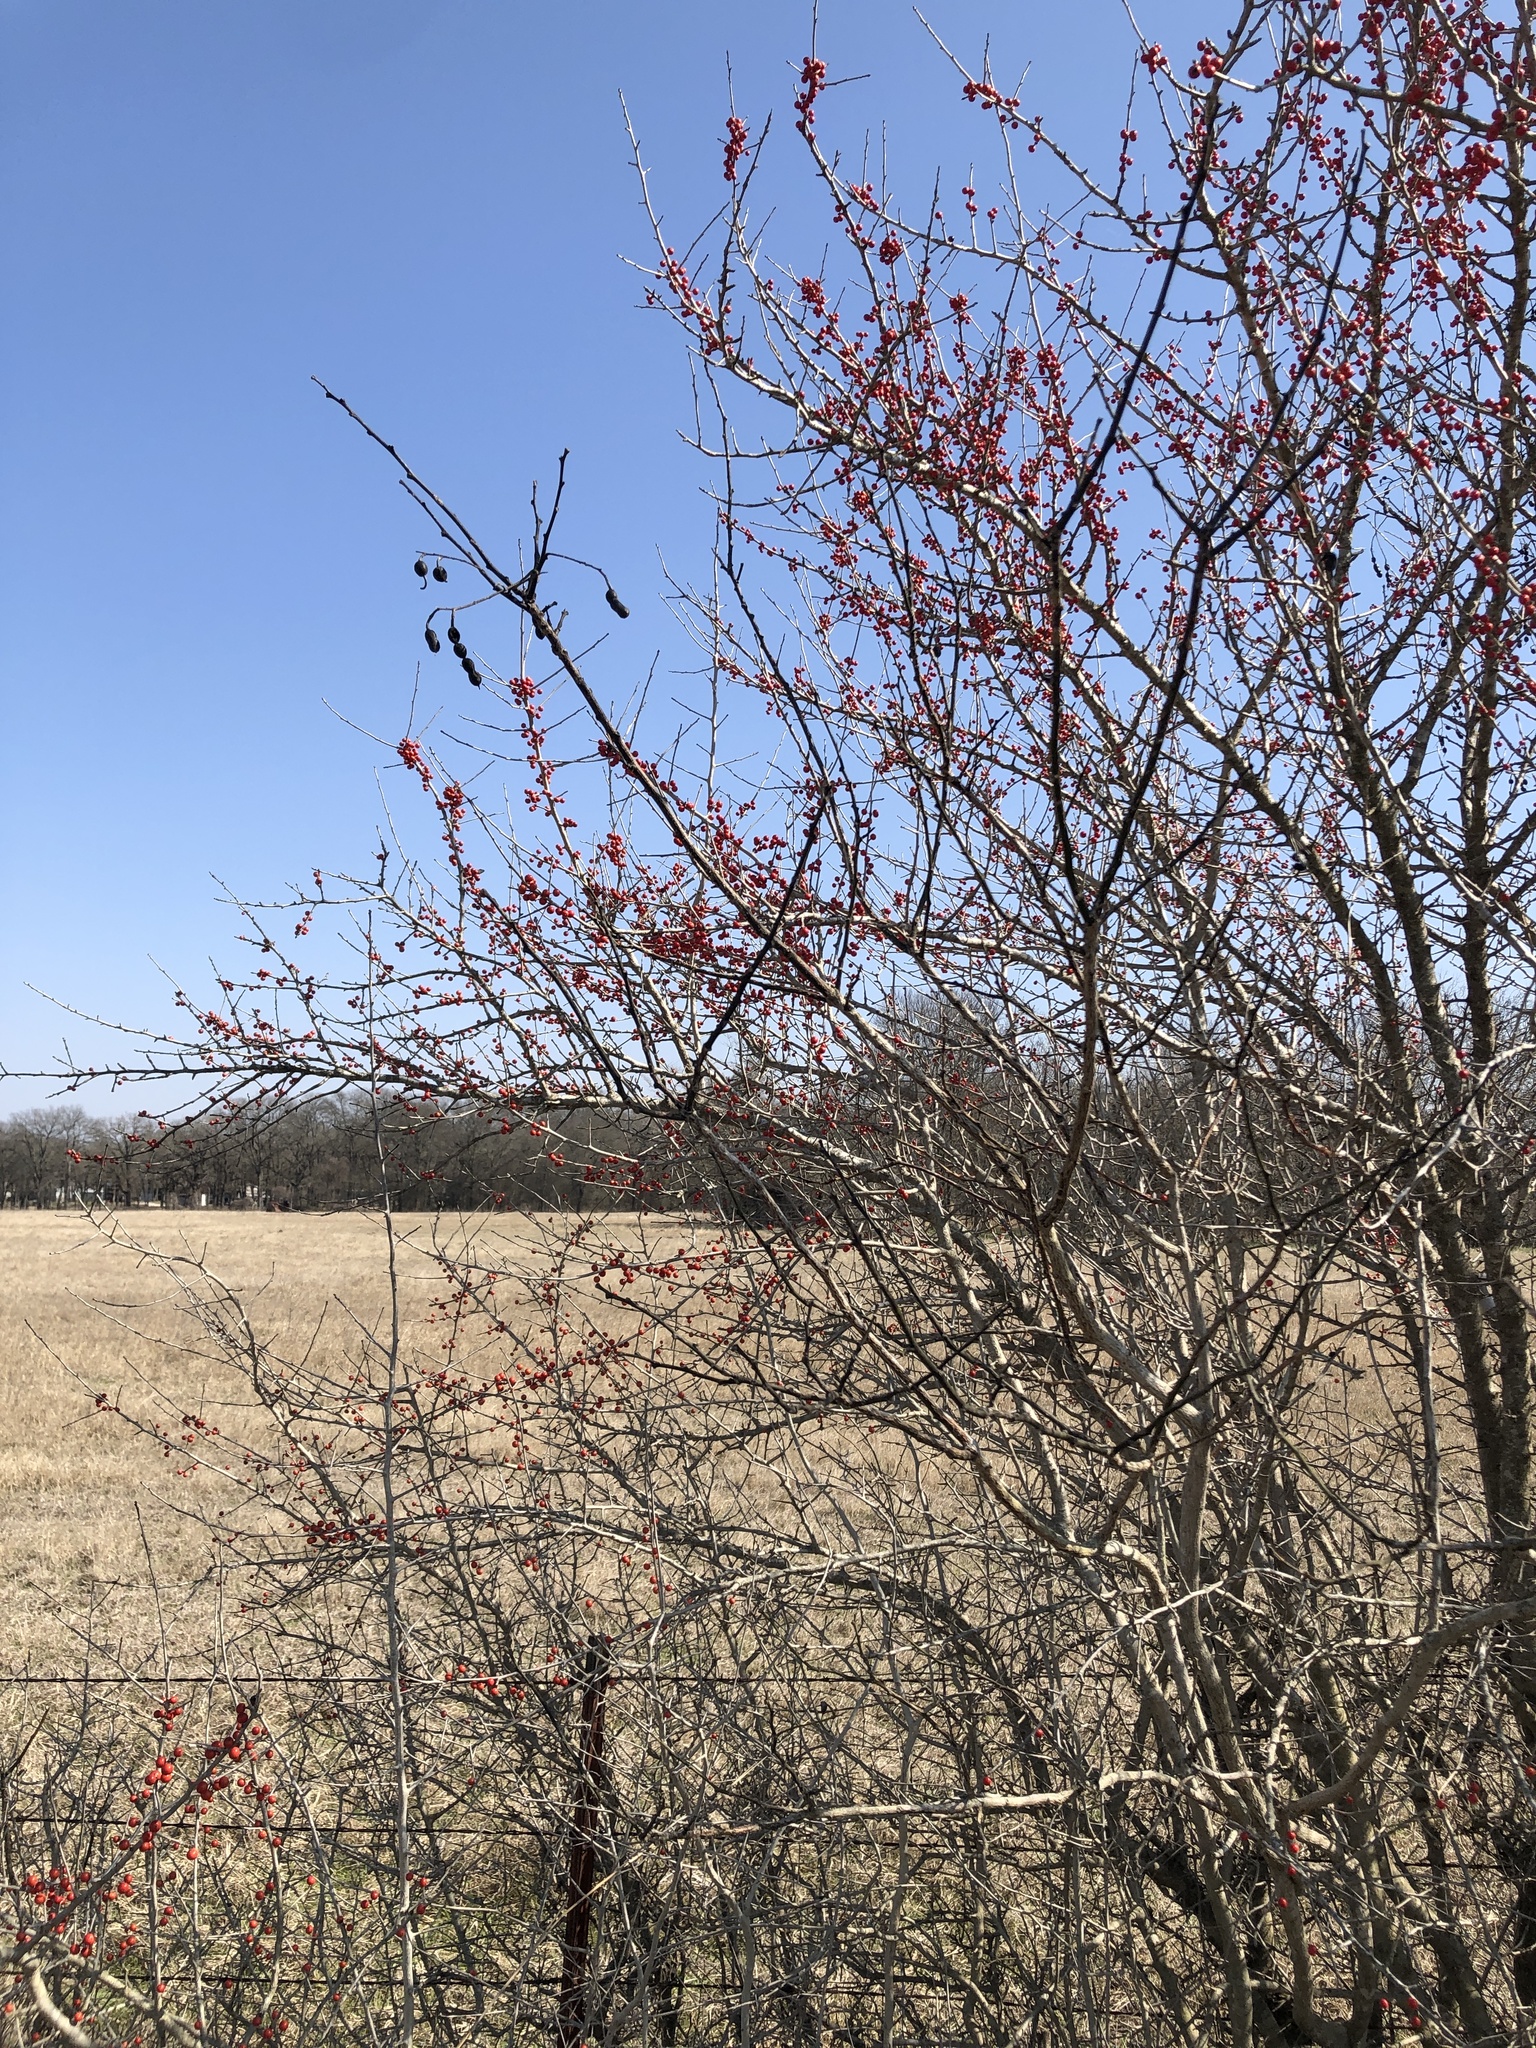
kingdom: Plantae
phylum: Tracheophyta
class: Magnoliopsida
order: Fabales
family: Fabaceae
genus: Styphnolobium
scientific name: Styphnolobium affine
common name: Texas sophora
